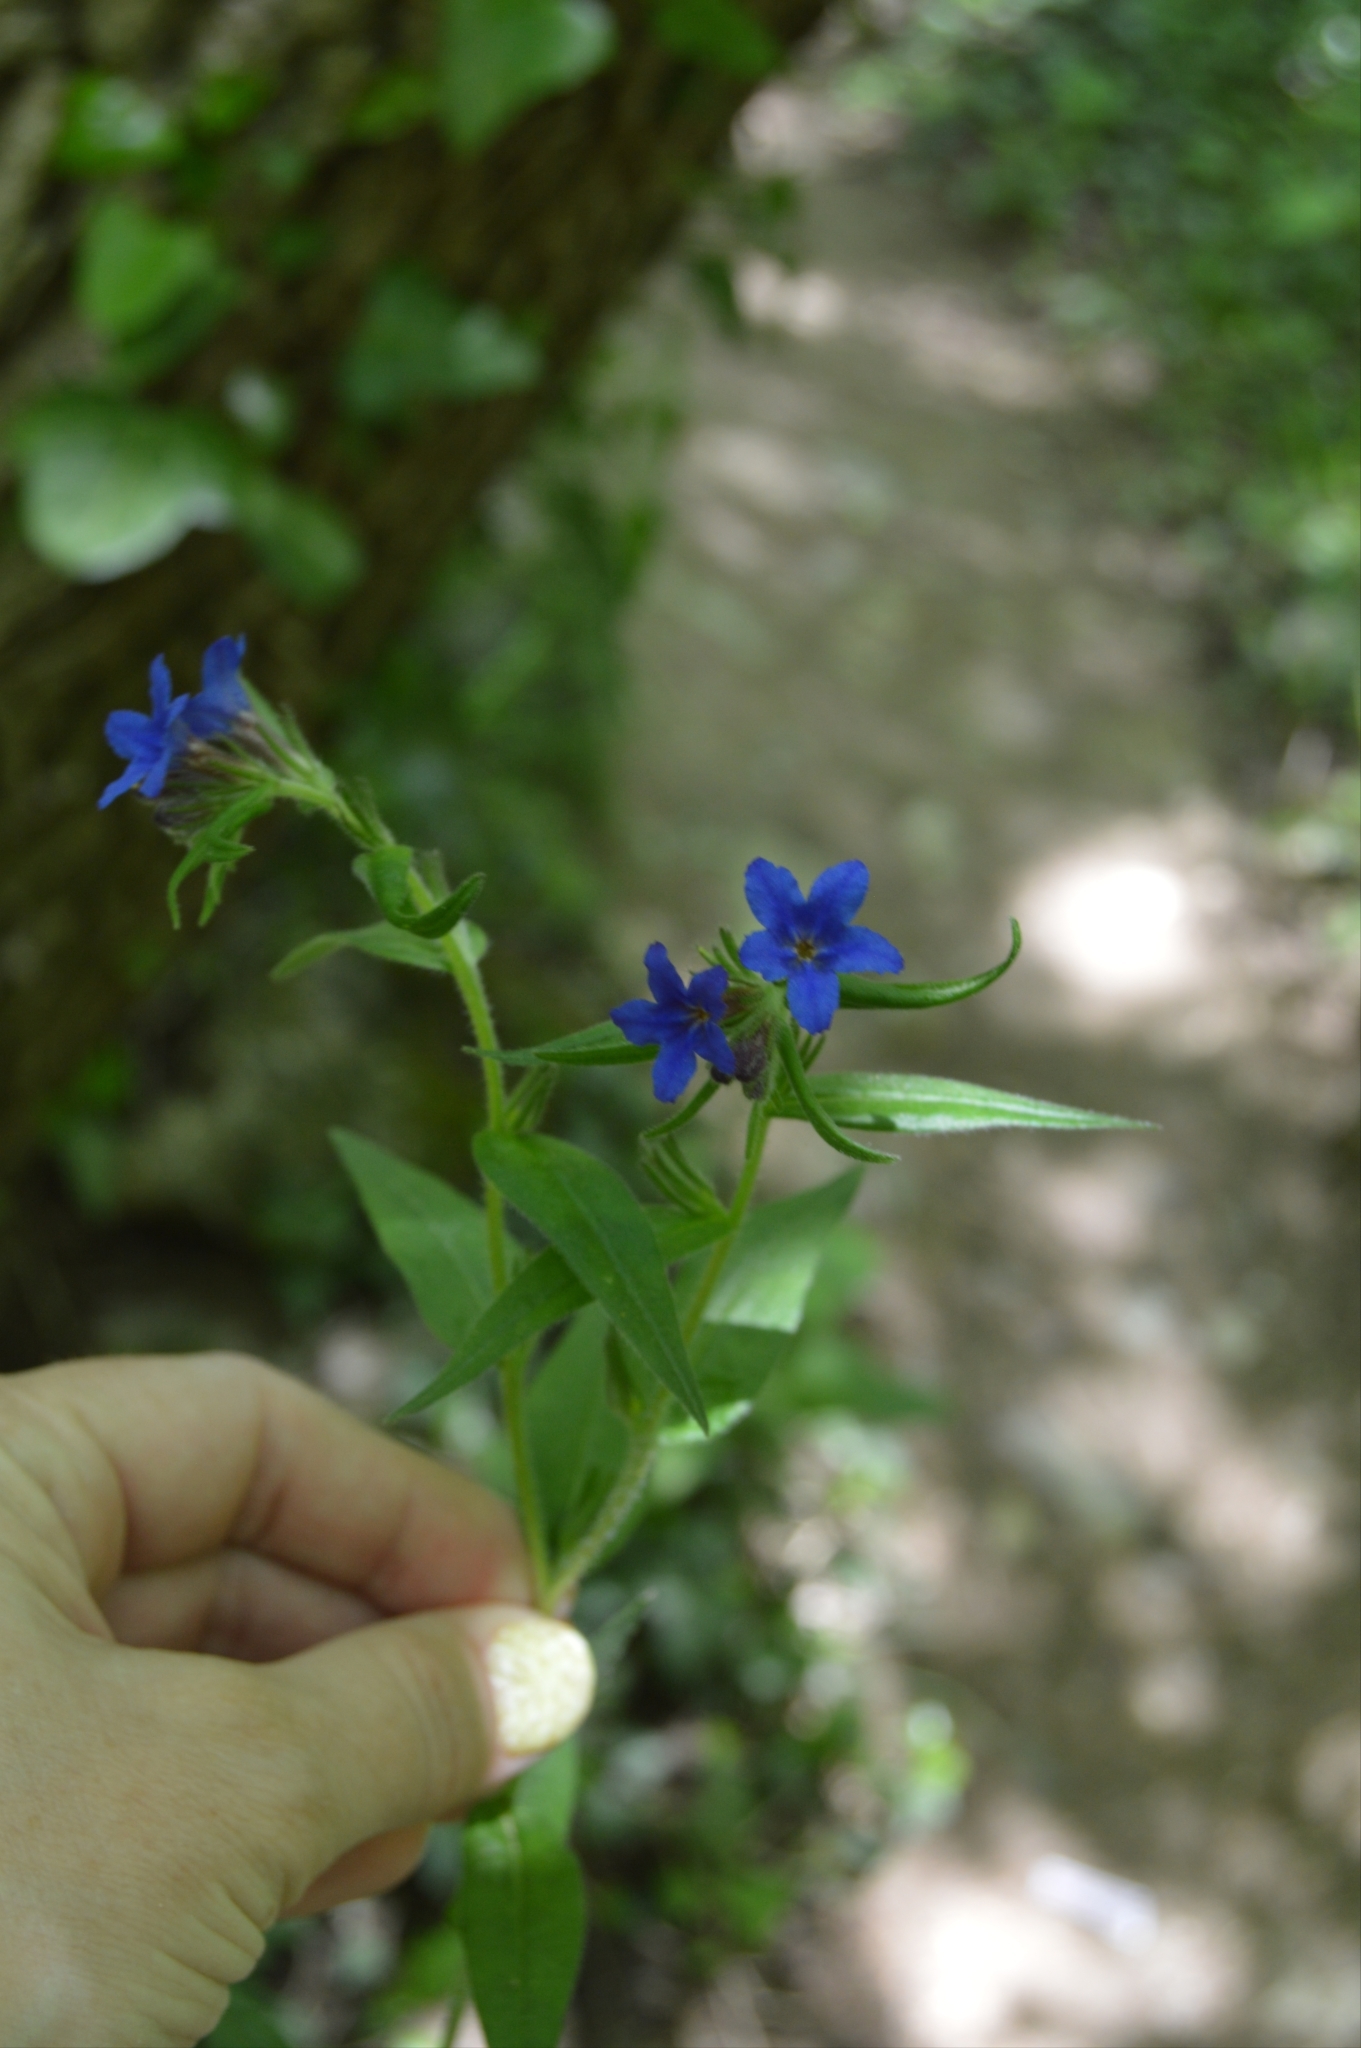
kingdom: Plantae
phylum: Tracheophyta
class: Magnoliopsida
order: Boraginales
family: Boraginaceae
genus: Aegonychon
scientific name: Aegonychon purpurocaeruleum
